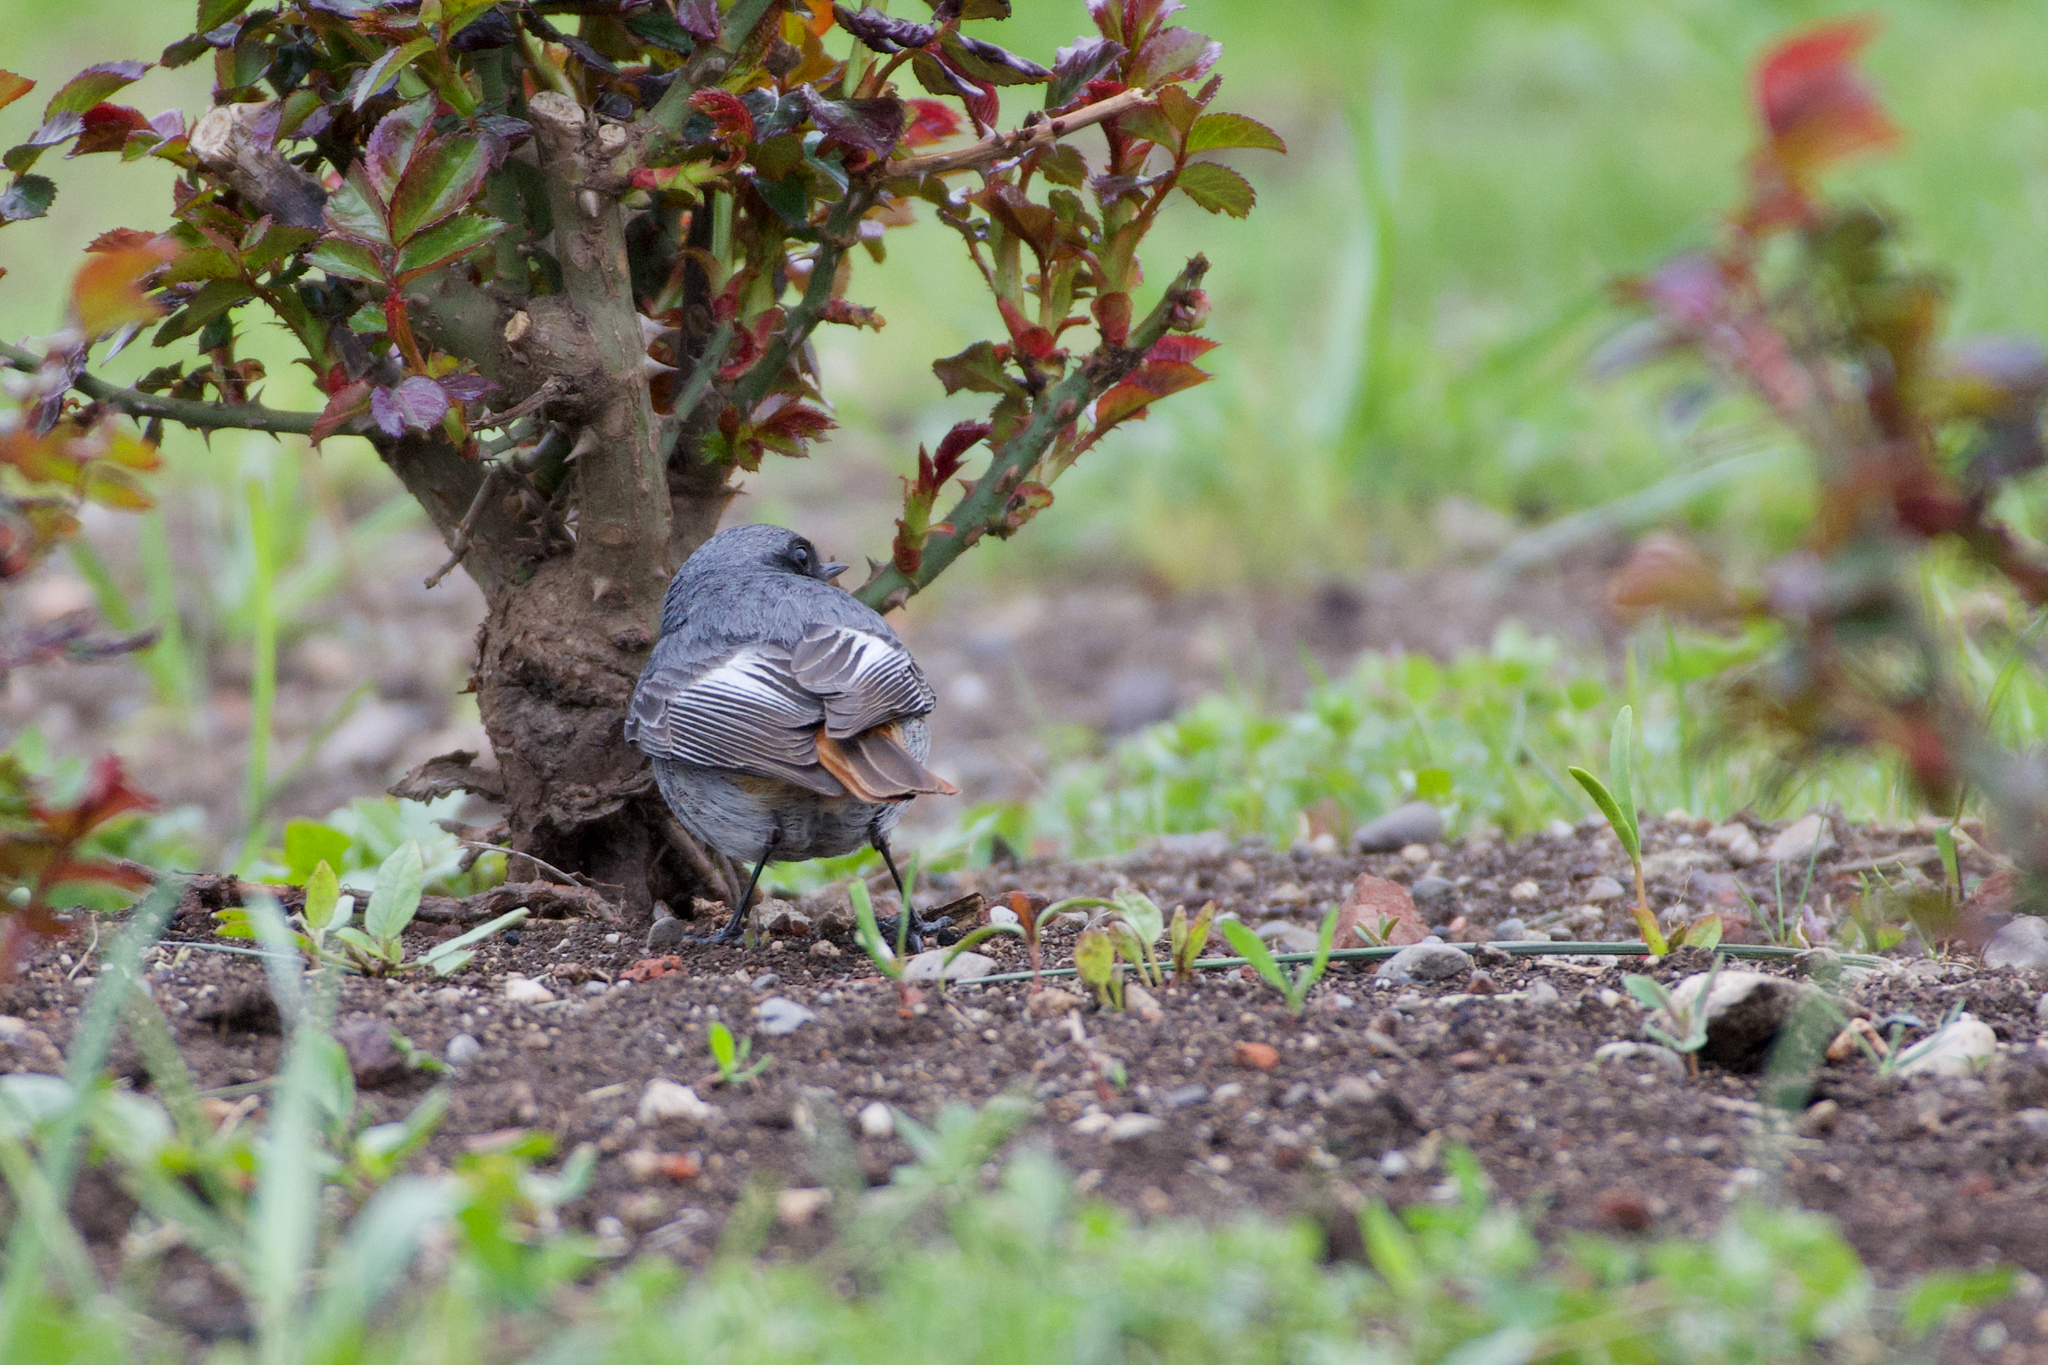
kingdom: Animalia
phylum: Chordata
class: Aves
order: Passeriformes
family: Muscicapidae
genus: Phoenicurus
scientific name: Phoenicurus ochruros
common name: Black redstart
